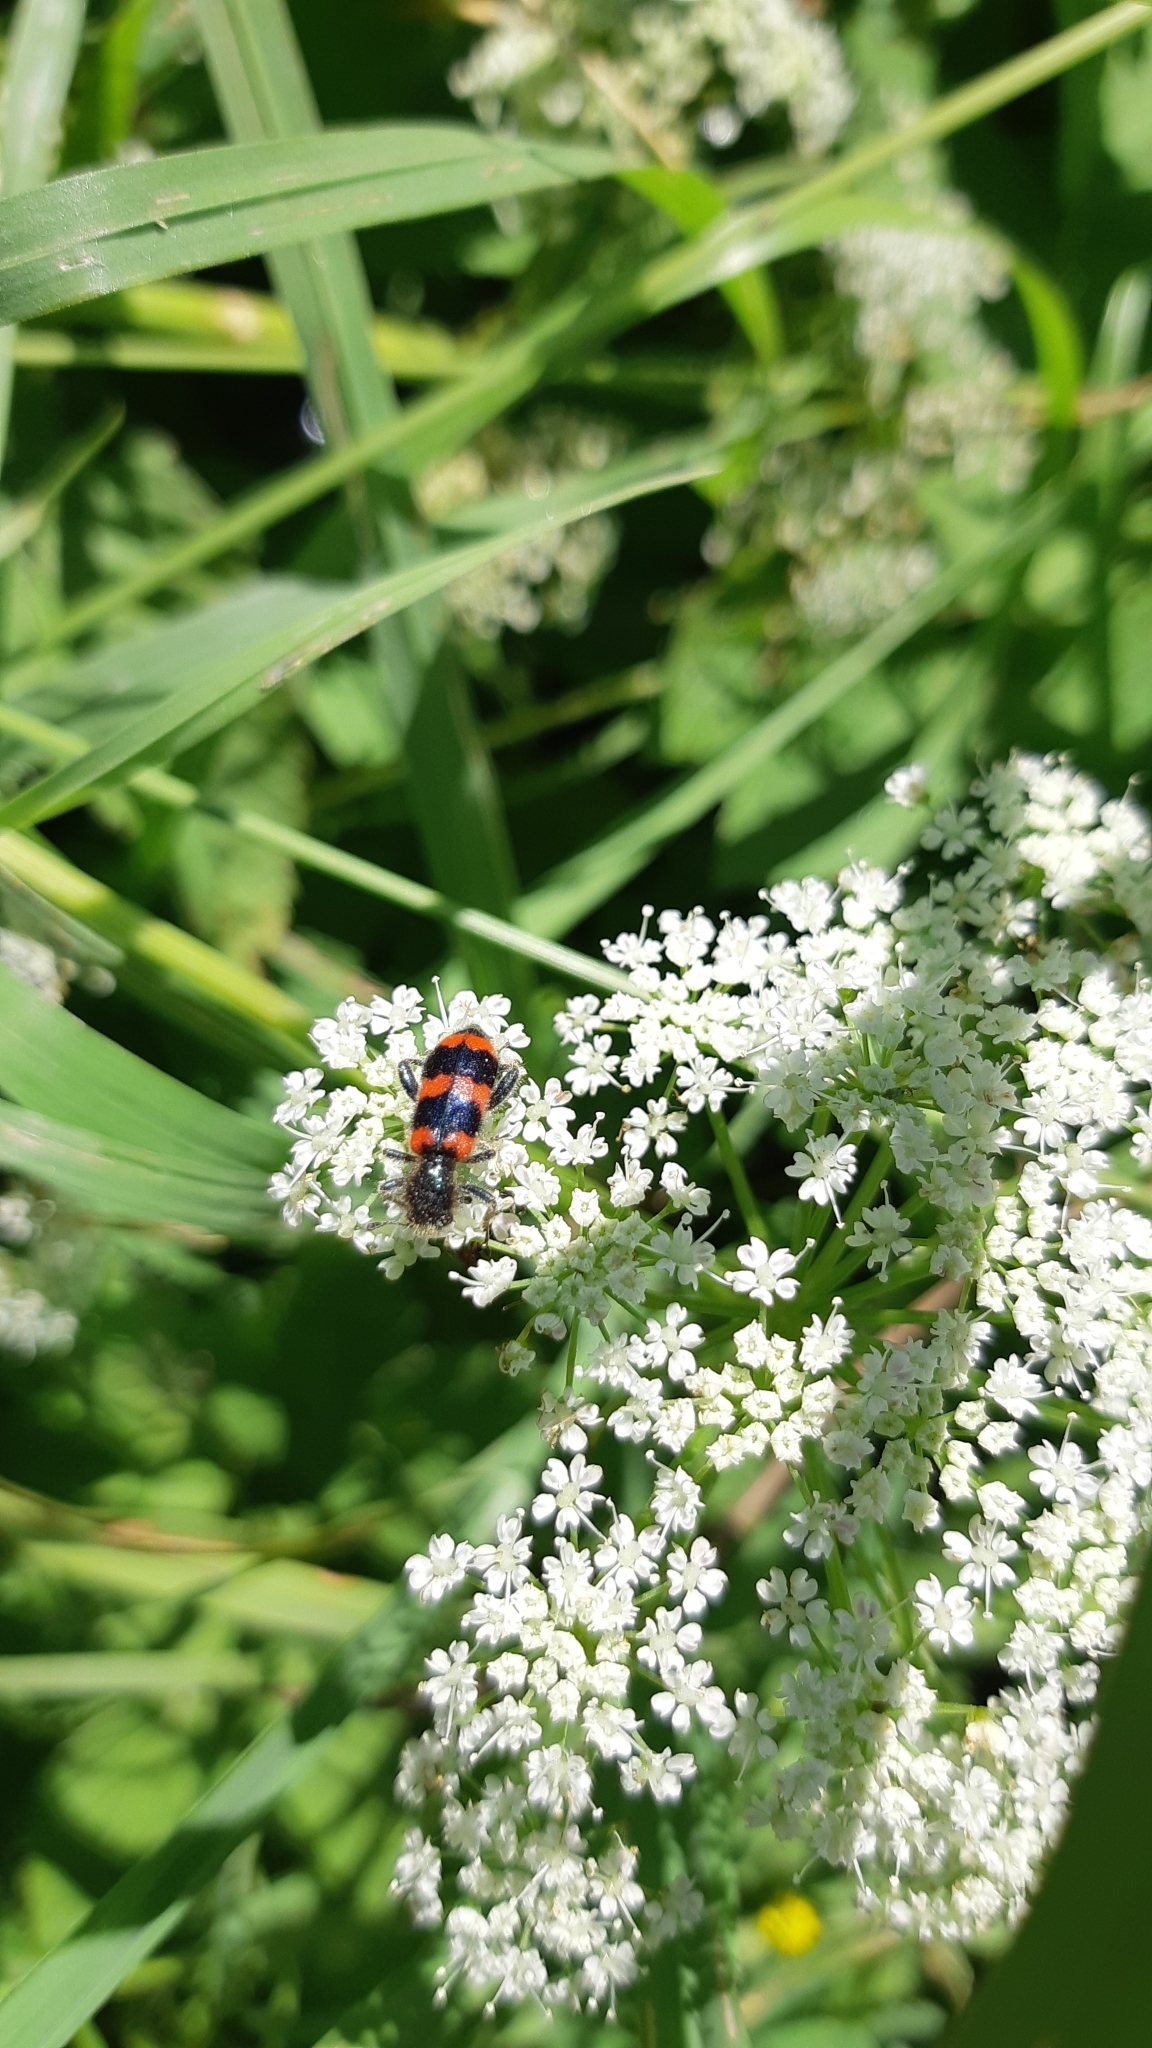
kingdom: Animalia
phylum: Arthropoda
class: Insecta
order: Coleoptera
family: Cleridae
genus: Trichodes
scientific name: Trichodes apiarius
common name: Bee-eating beetle
